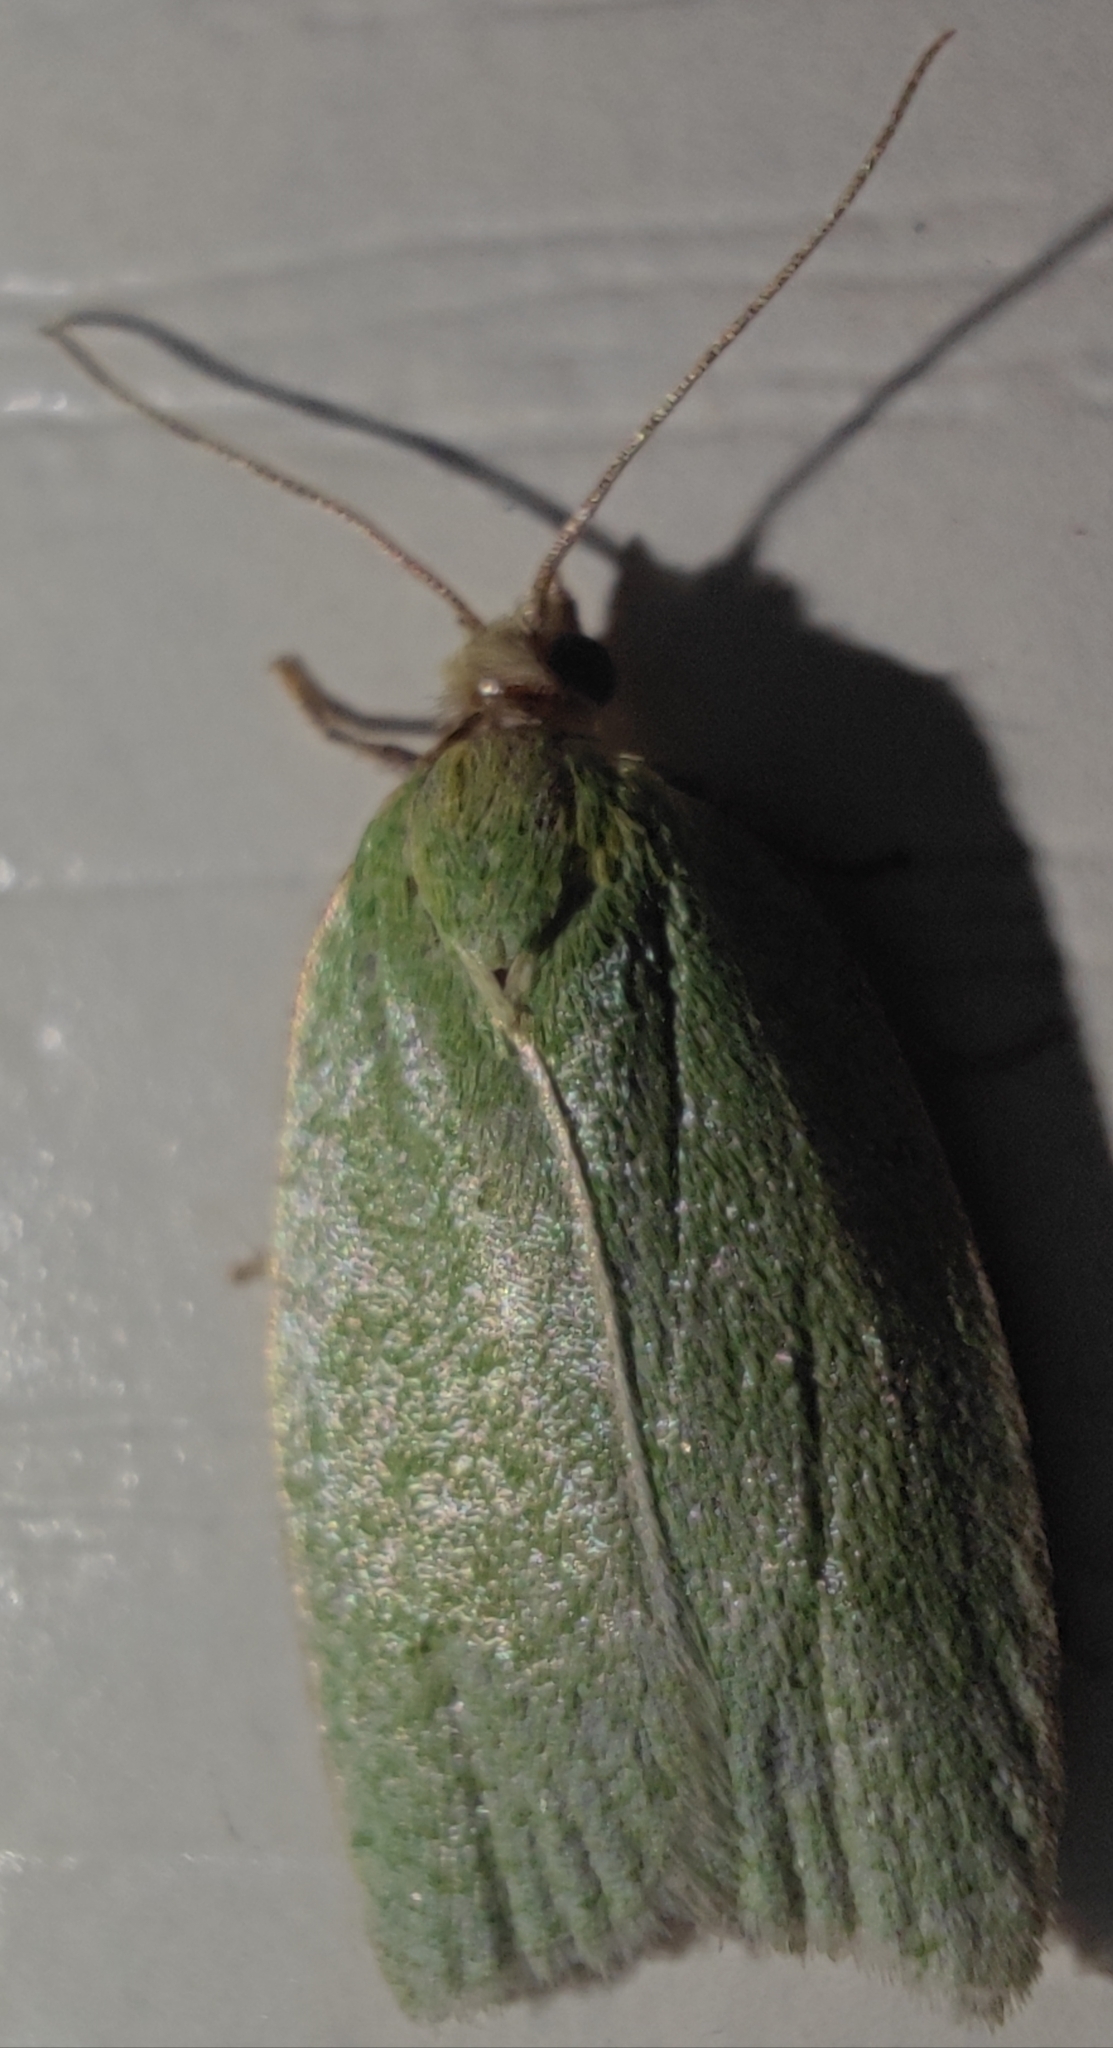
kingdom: Animalia
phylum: Arthropoda
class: Insecta
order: Lepidoptera
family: Tortricidae
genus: Tortrix
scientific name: Tortrix viridana
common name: Green oak tortrix
